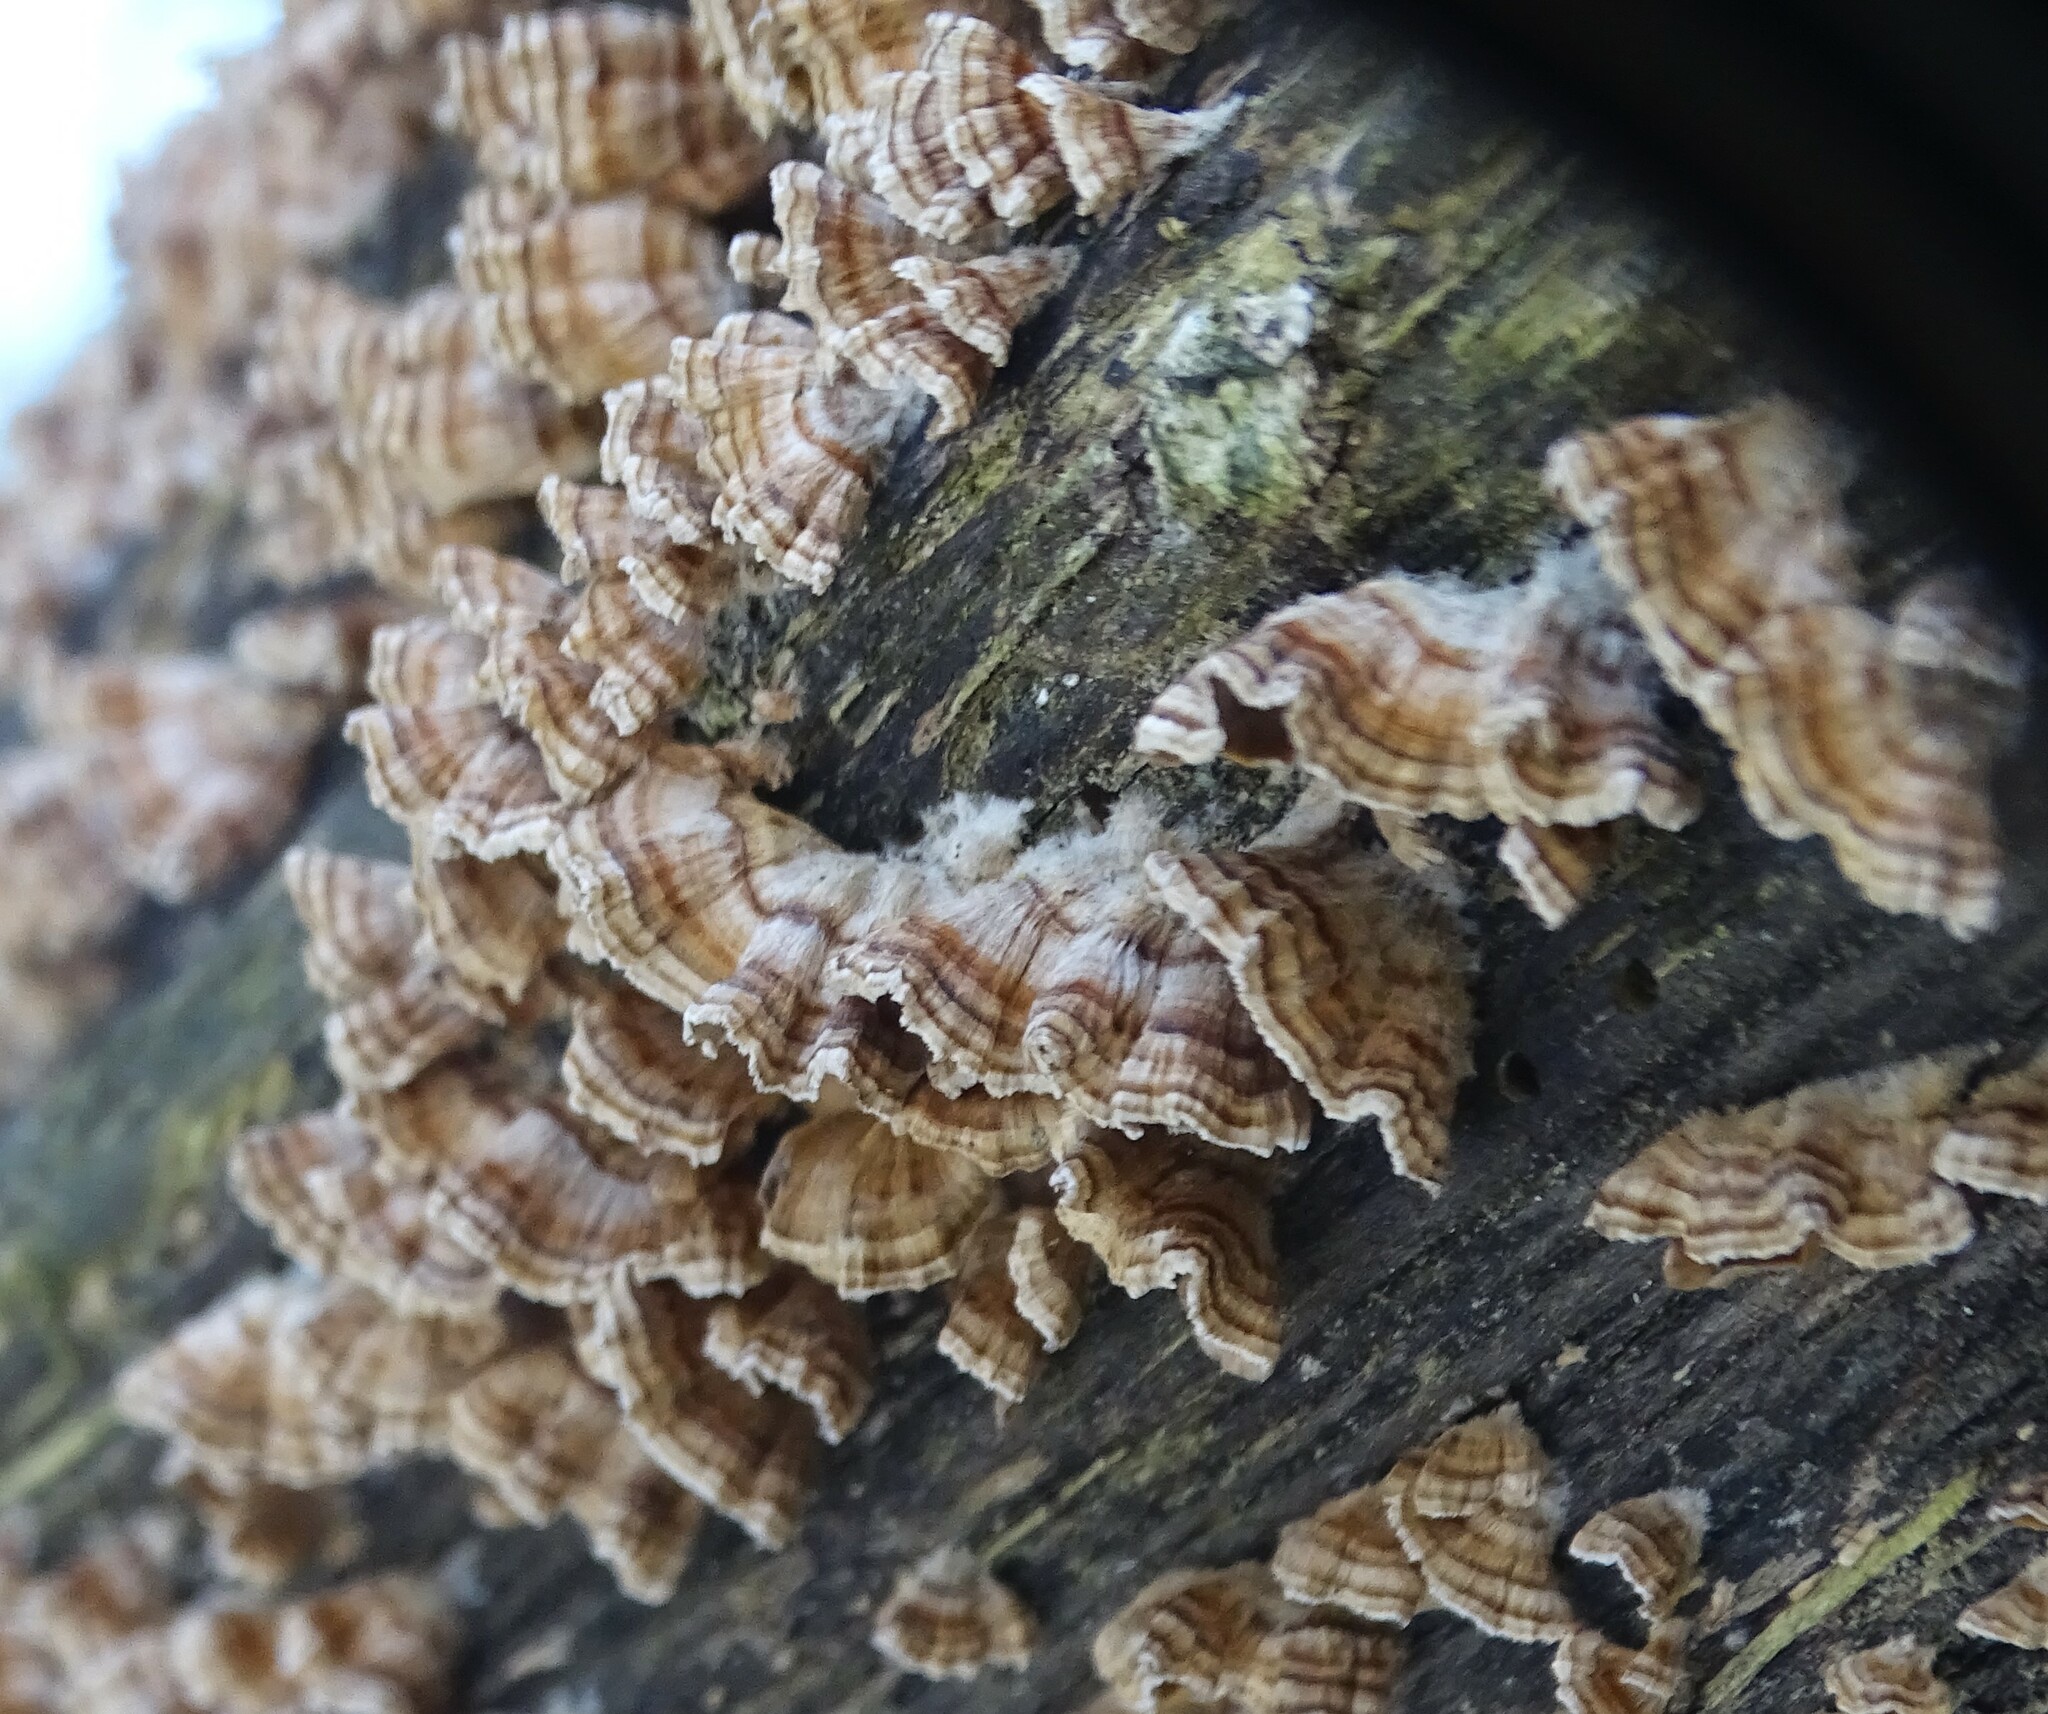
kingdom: Fungi
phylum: Basidiomycota
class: Agaricomycetes
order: Russulales
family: Stereaceae
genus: Stereum
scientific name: Stereum complicatum
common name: Crowded parchment
